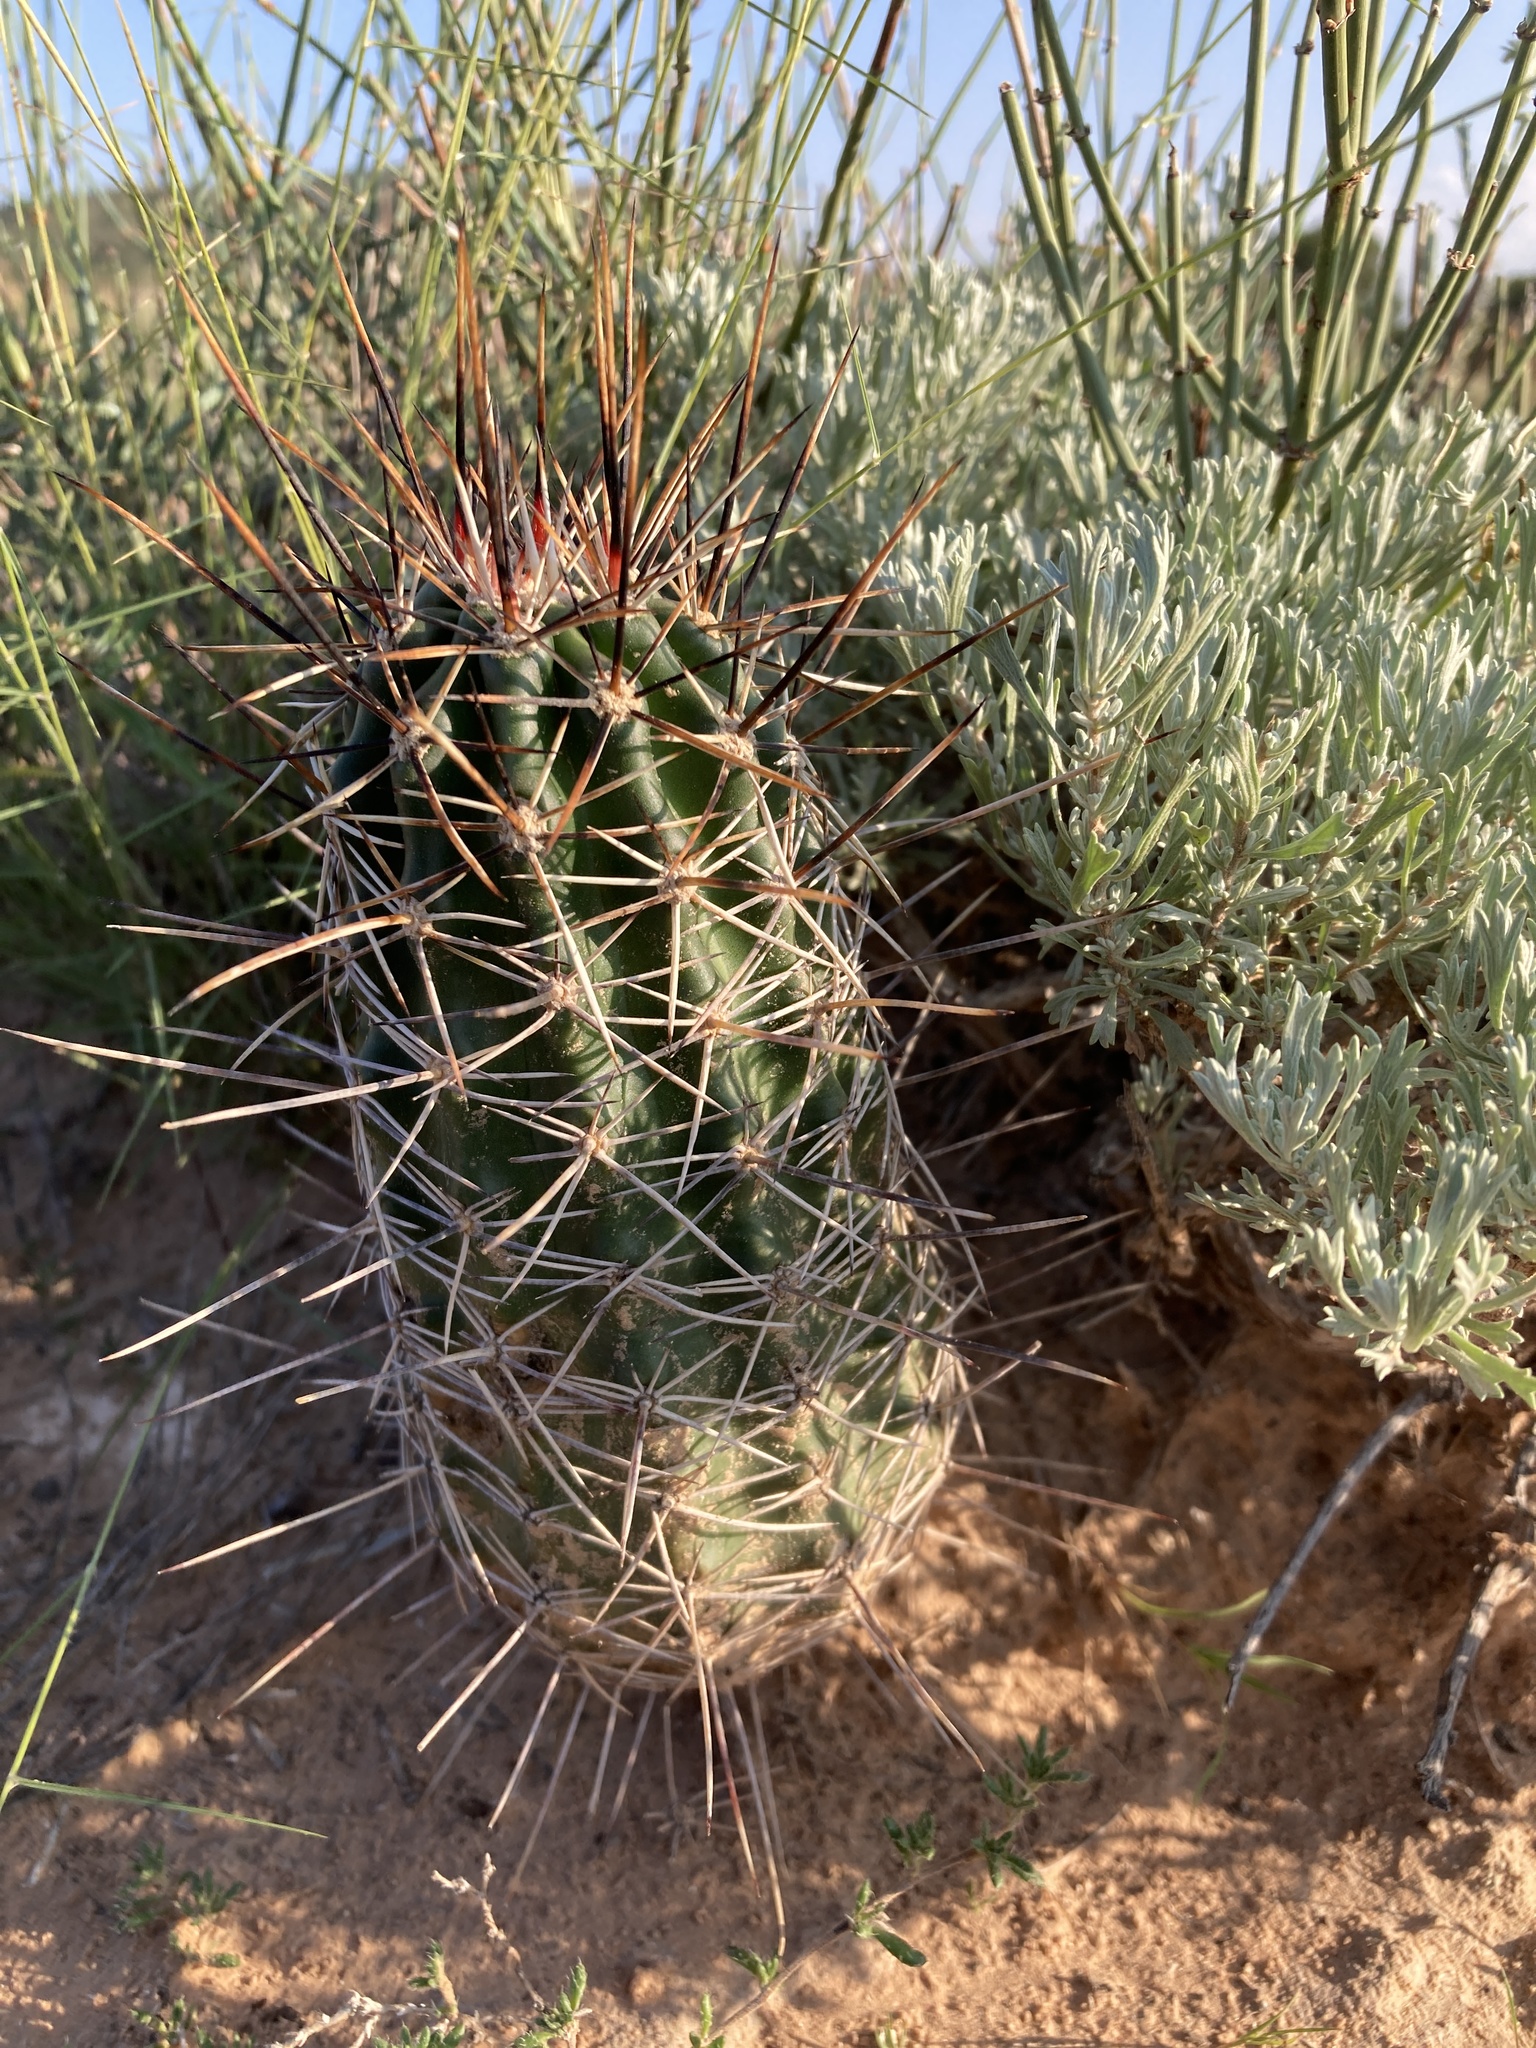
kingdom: Plantae
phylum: Tracheophyta
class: Magnoliopsida
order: Caryophyllales
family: Cactaceae
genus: Echinocereus
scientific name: Echinocereus fendleri
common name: Fendler's hedgehog cactus
